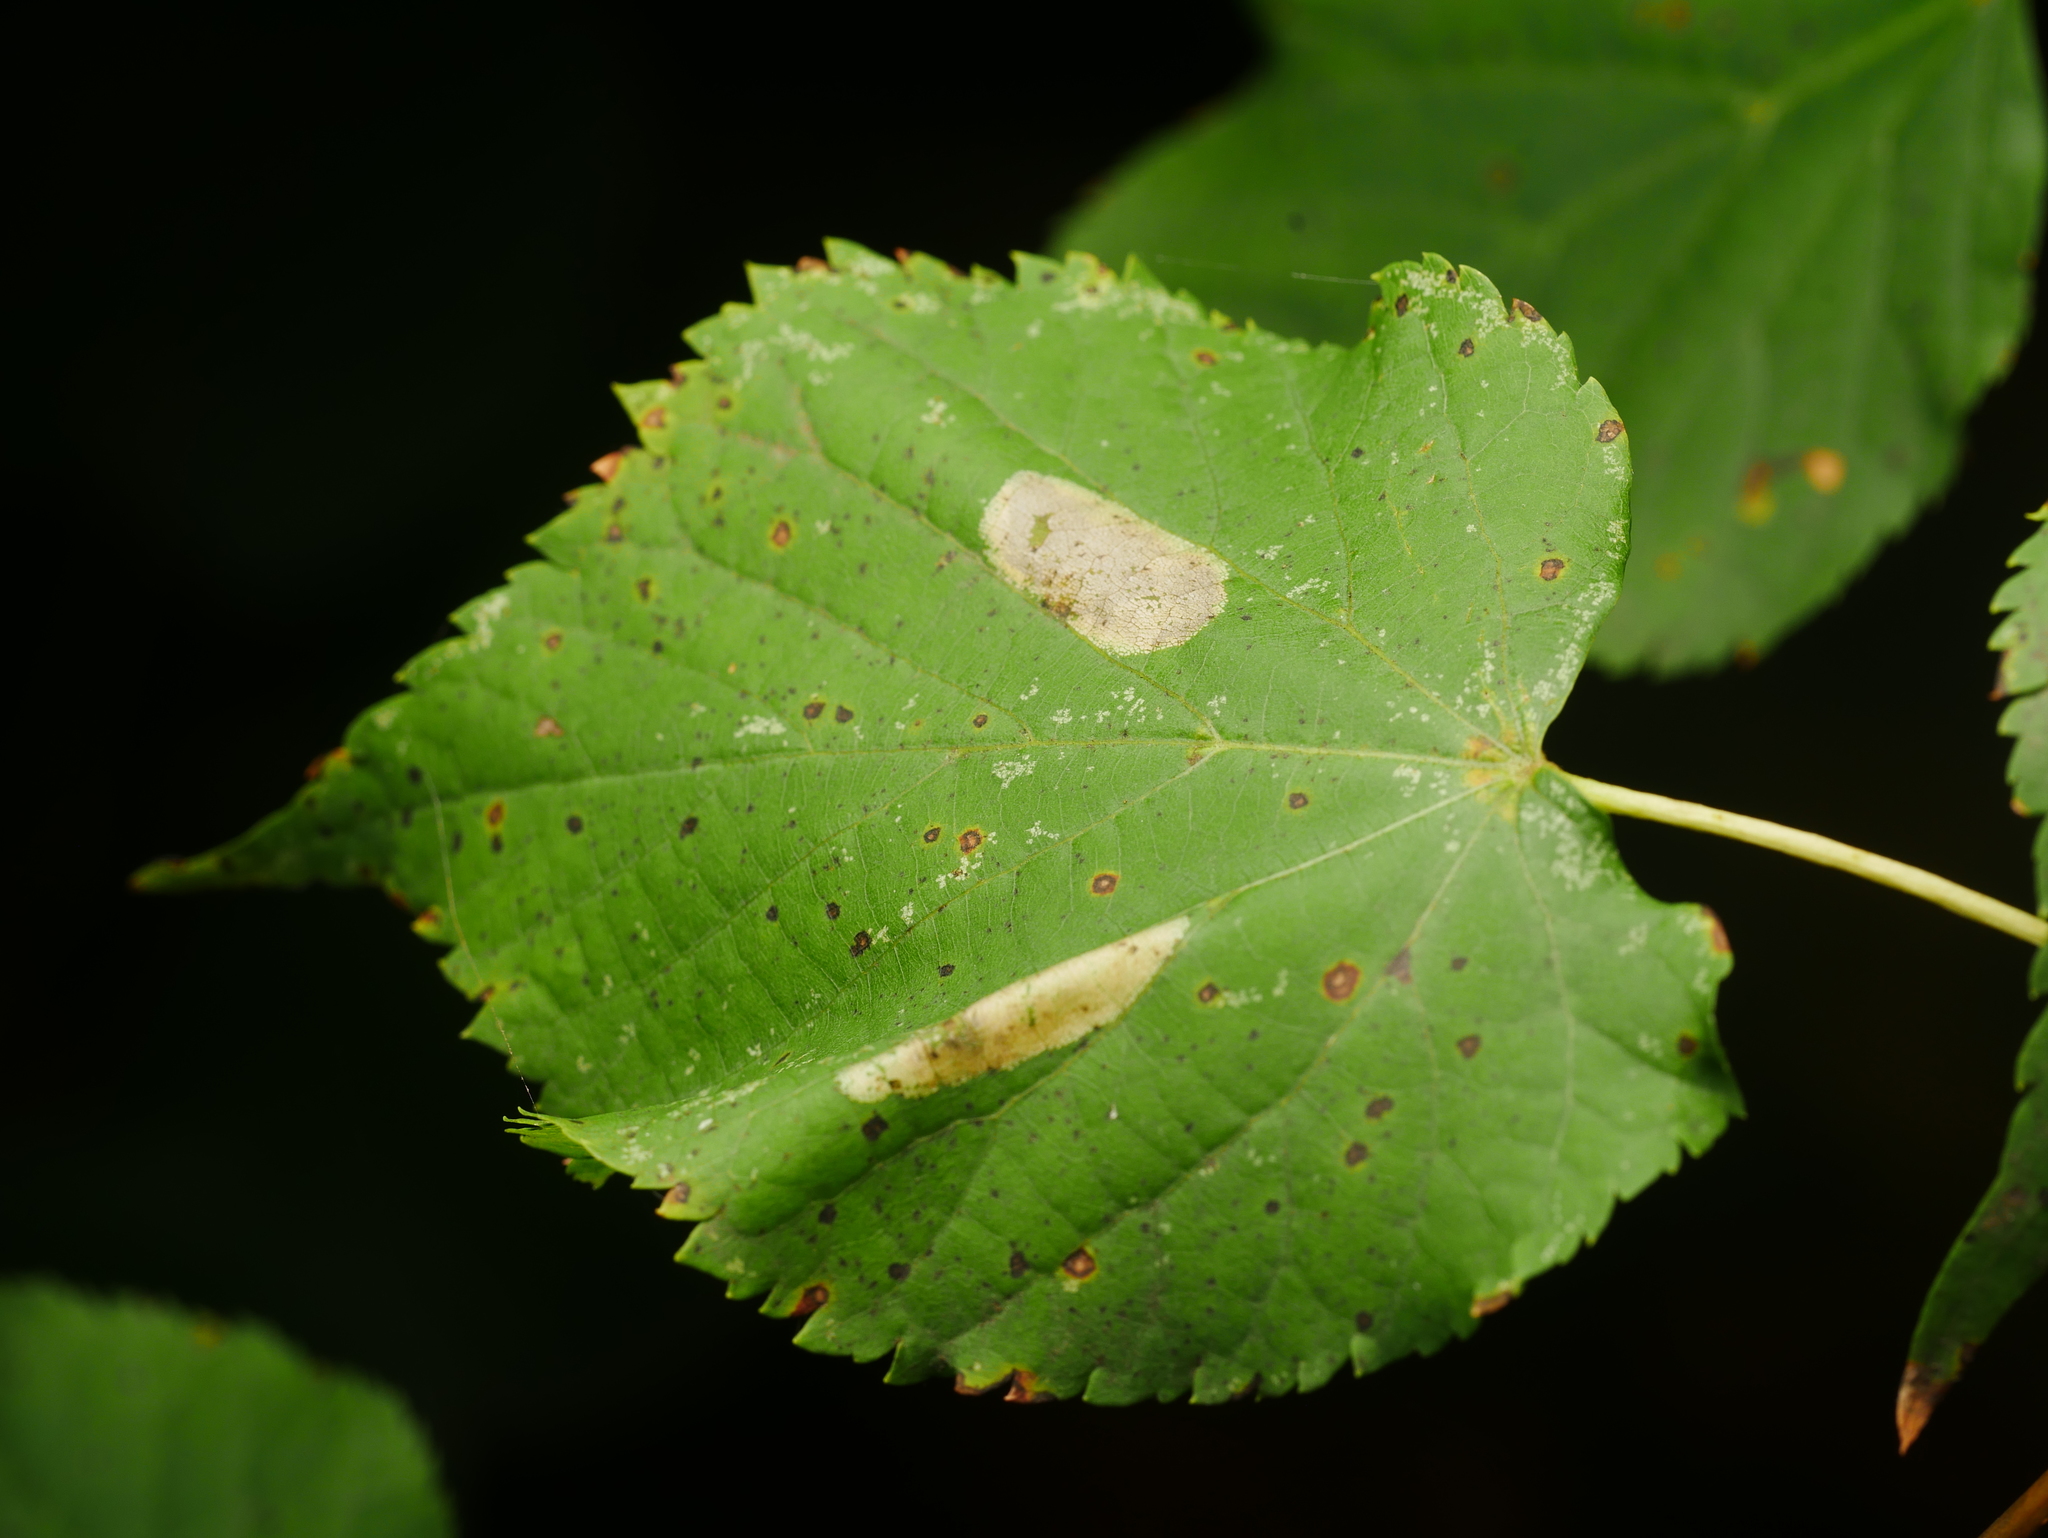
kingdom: Animalia
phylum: Arthropoda
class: Insecta
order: Lepidoptera
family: Gracillariidae
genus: Phyllonorycter
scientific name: Phyllonorycter issikii
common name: Linden midget
